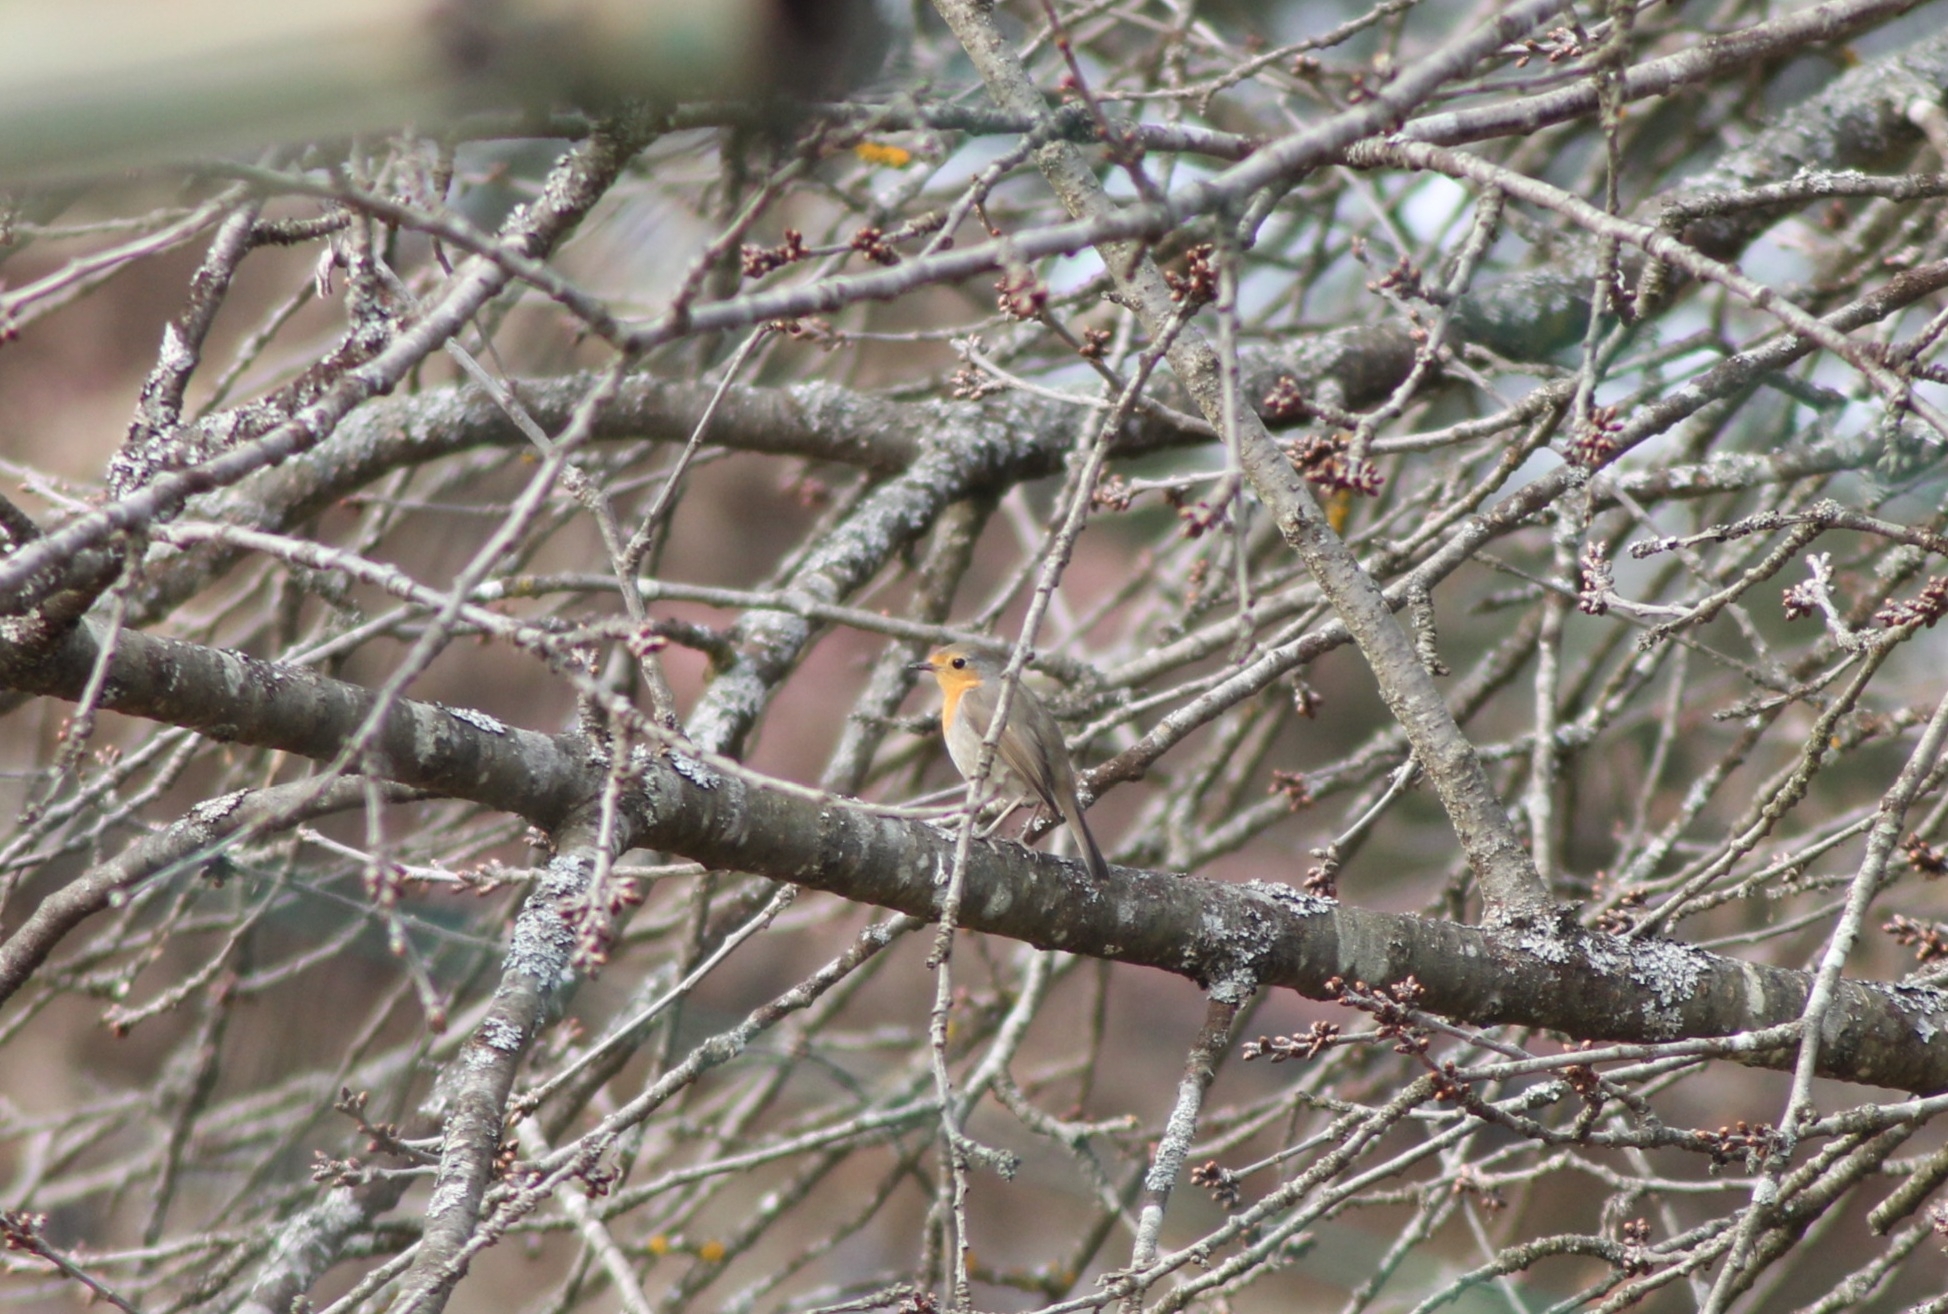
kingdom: Animalia
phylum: Chordata
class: Aves
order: Passeriformes
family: Muscicapidae
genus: Erithacus
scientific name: Erithacus rubecula
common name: European robin
